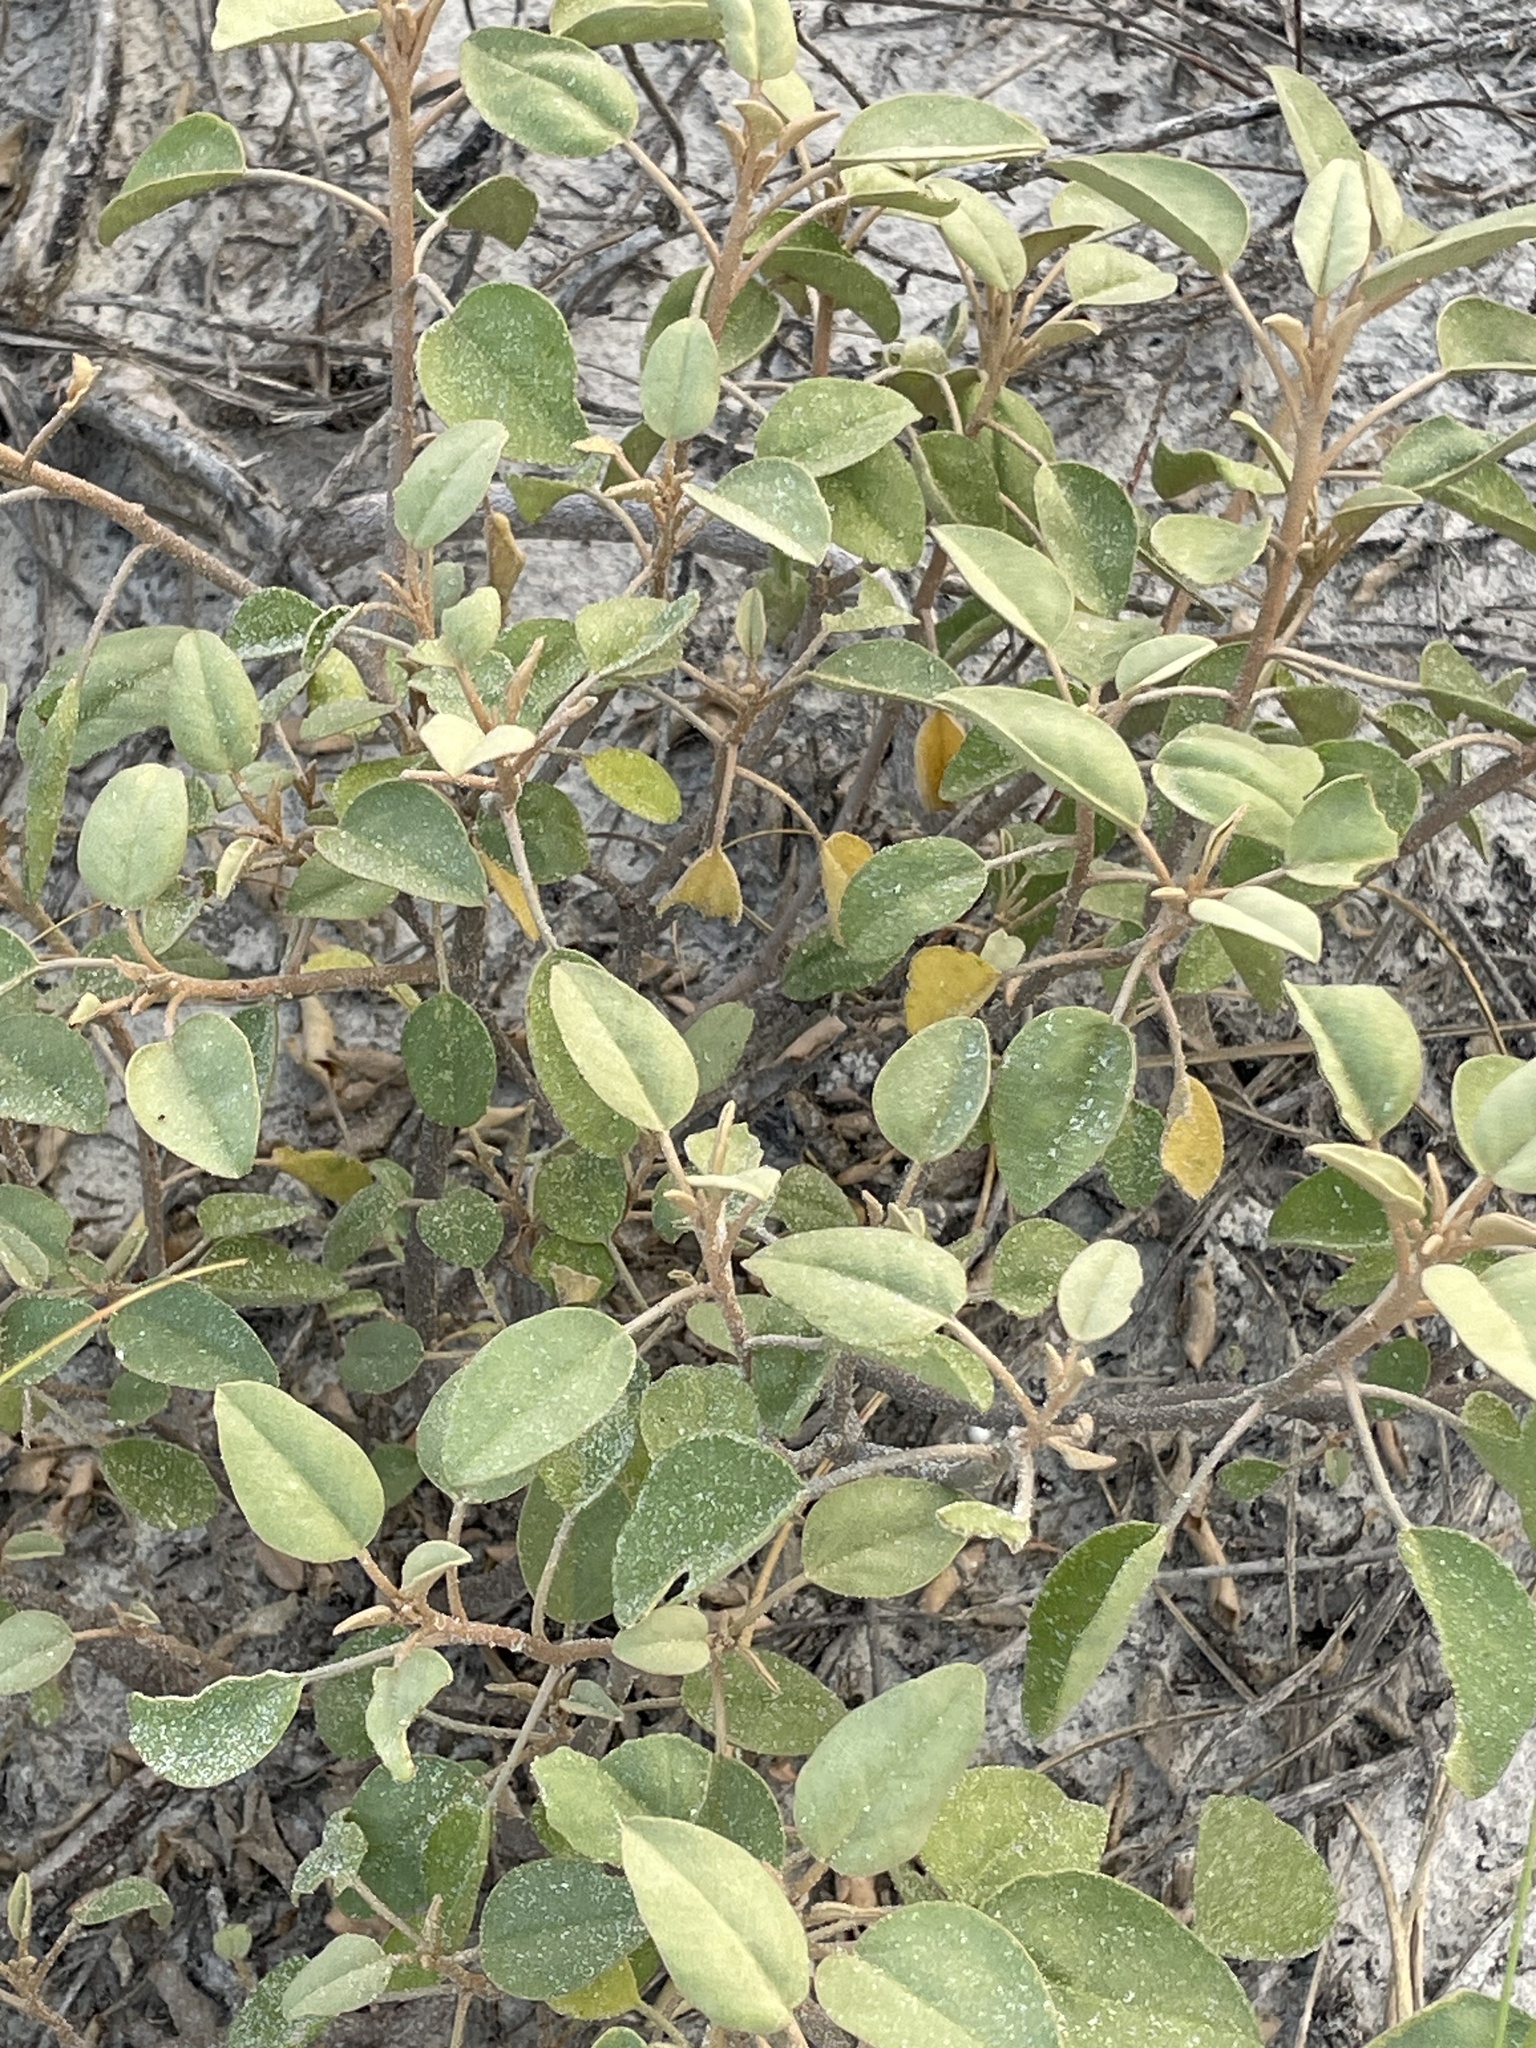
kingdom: Plantae
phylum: Tracheophyta
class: Magnoliopsida
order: Malpighiales
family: Euphorbiaceae
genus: Croton
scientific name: Croton punctatus
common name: Beach-tea
